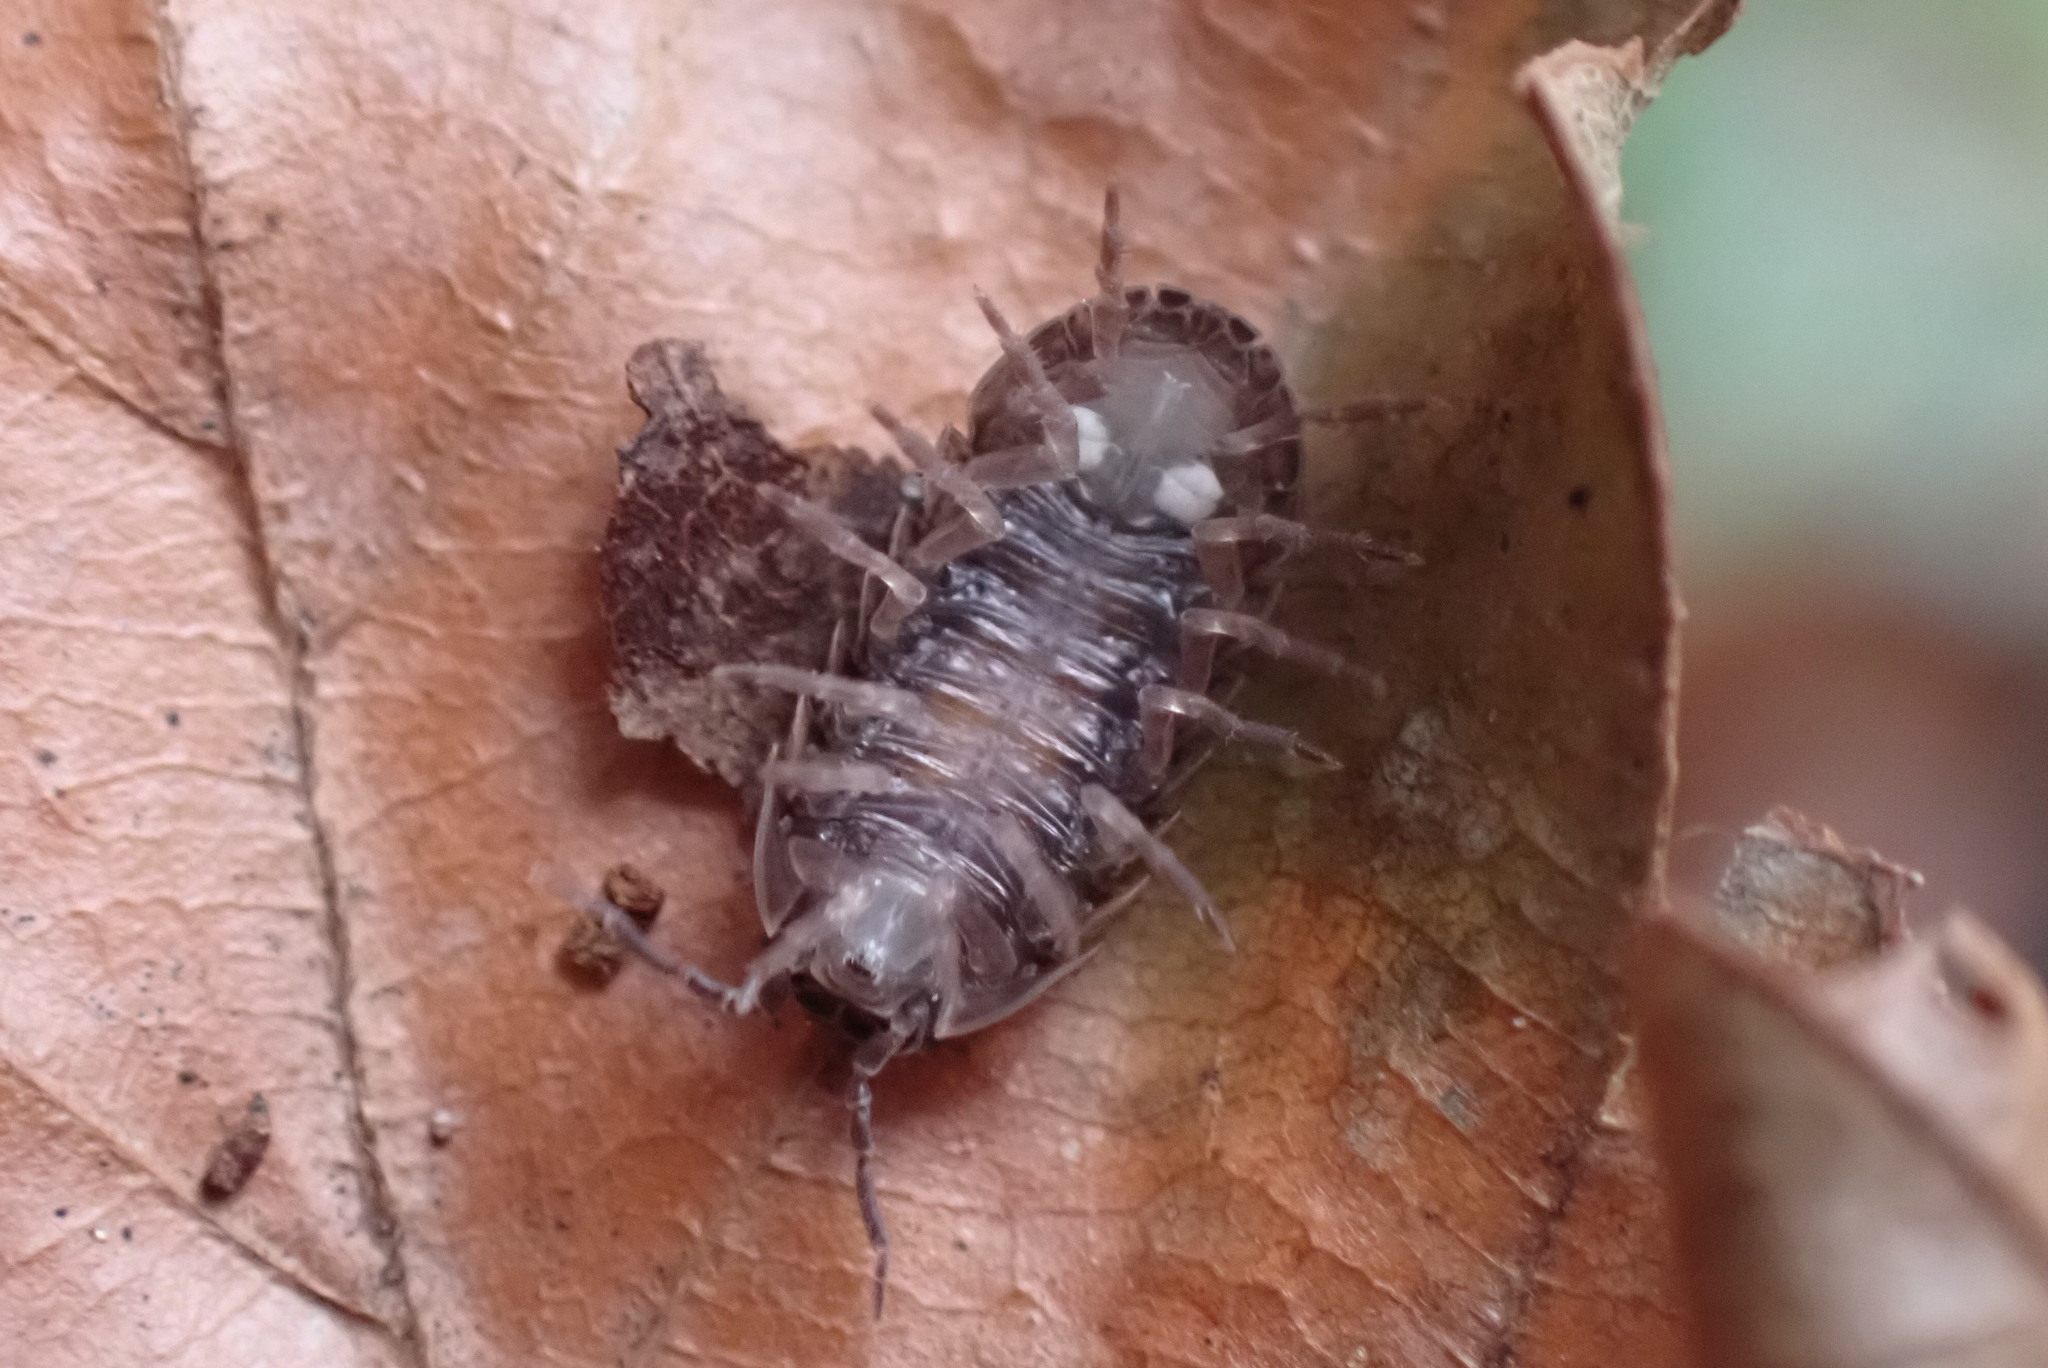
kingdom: Animalia
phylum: Arthropoda
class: Malacostraca
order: Isopoda
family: Armadillidiidae
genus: Armadillidium
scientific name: Armadillidium vulgare
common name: Common pill woodlouse
